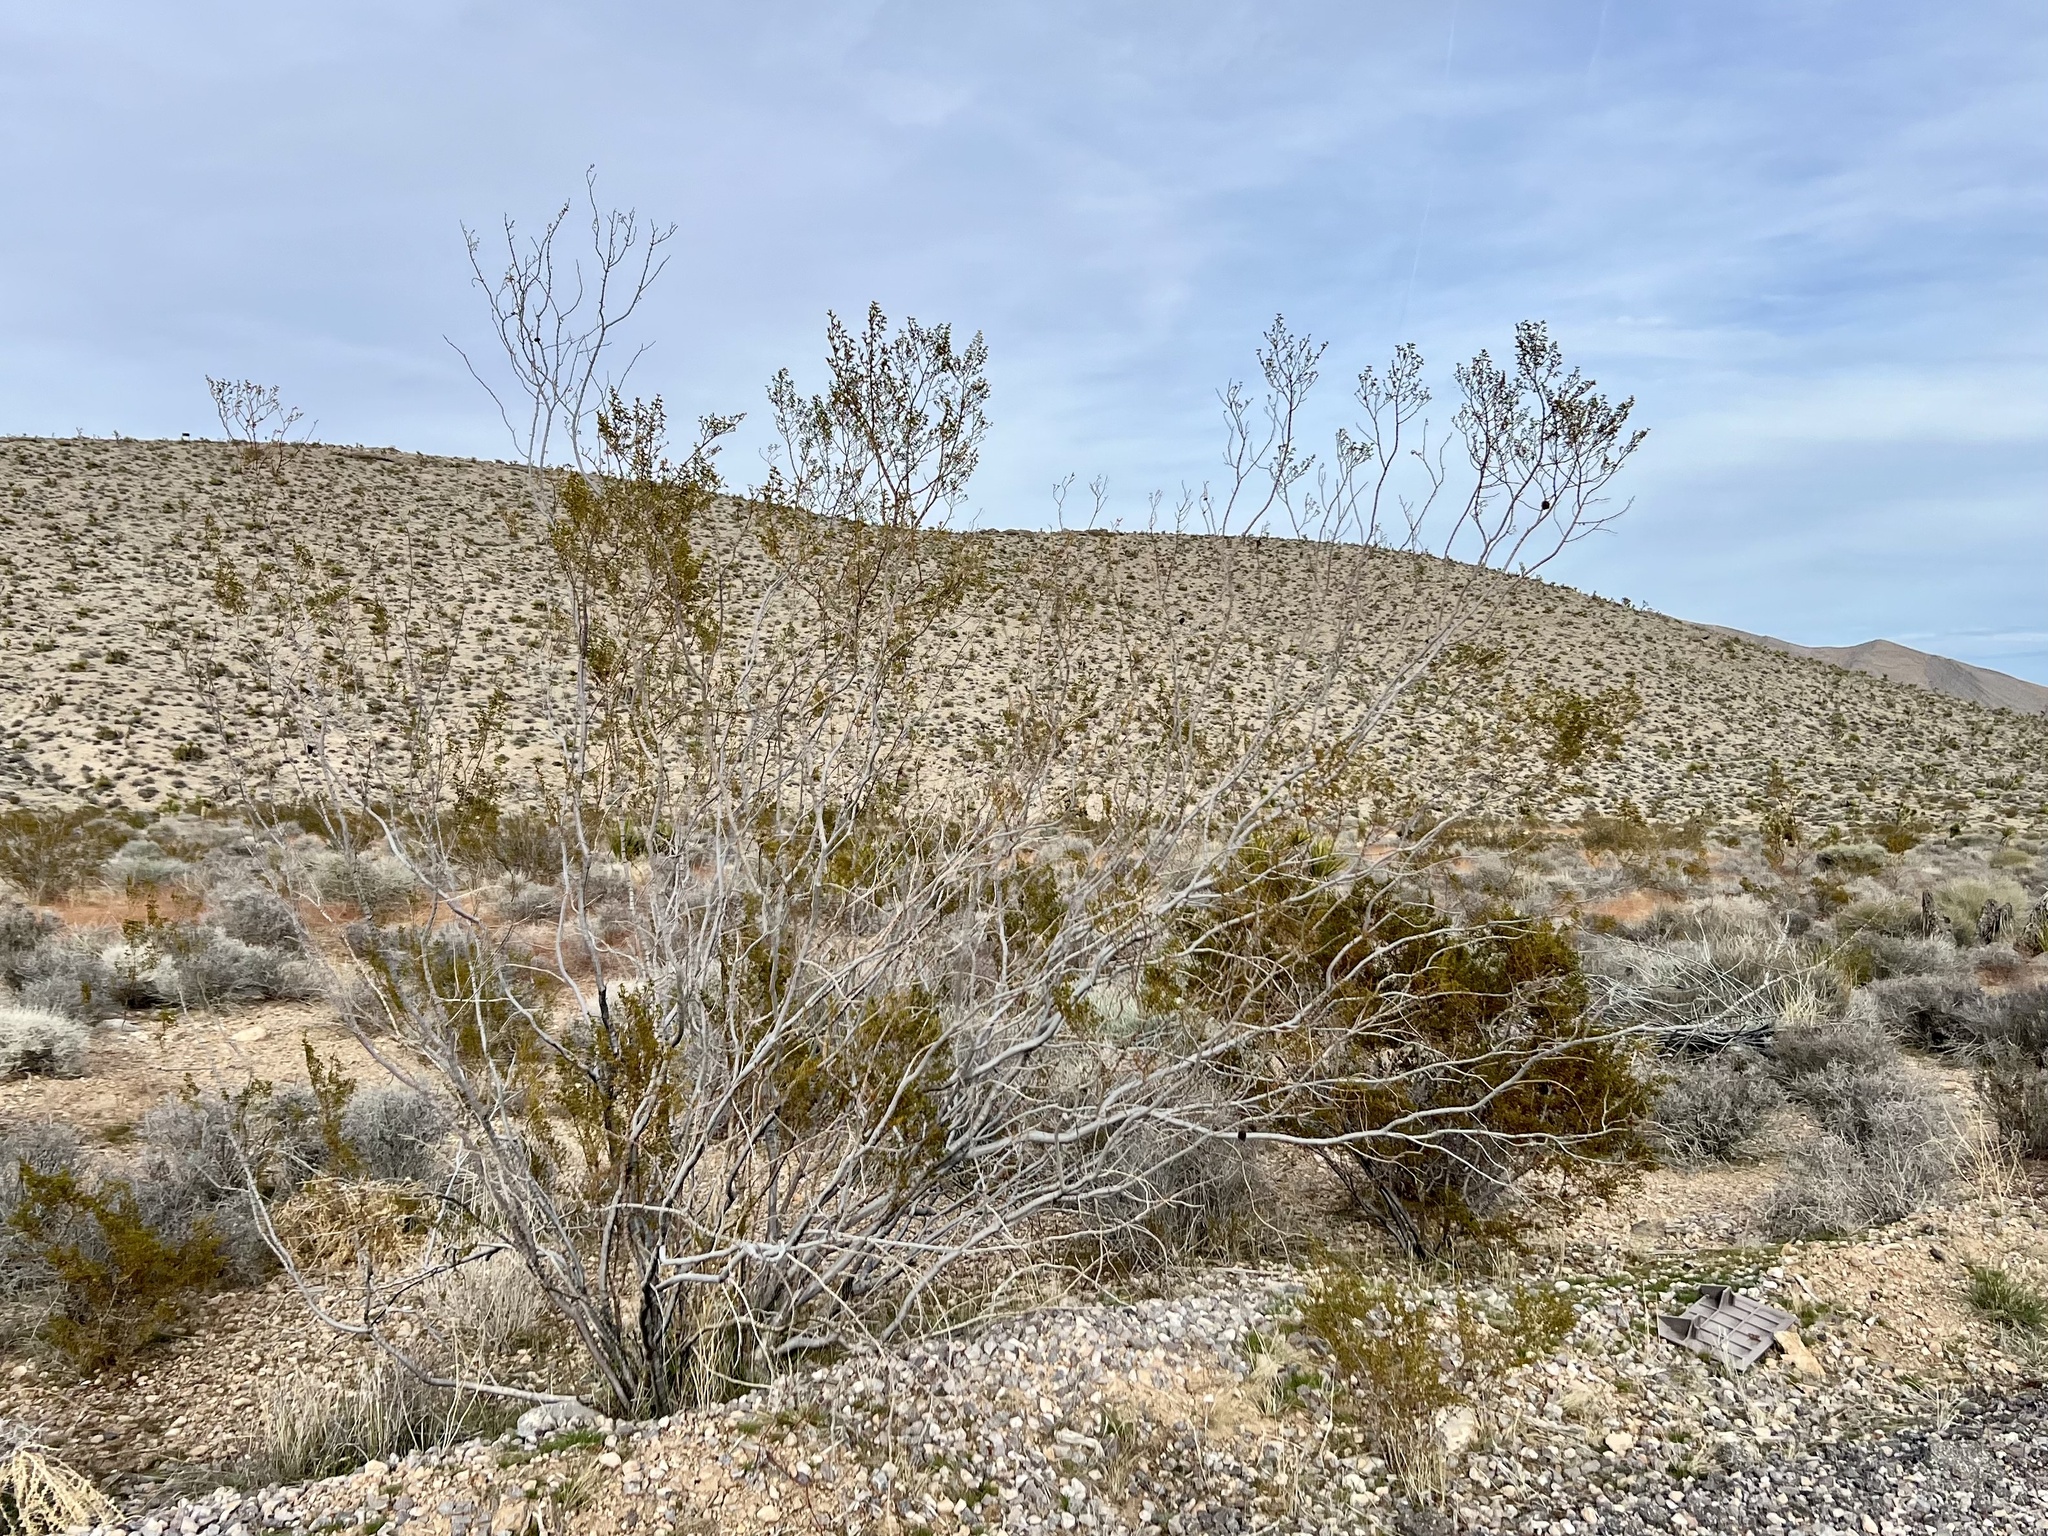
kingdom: Plantae
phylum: Tracheophyta
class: Magnoliopsida
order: Zygophyllales
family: Zygophyllaceae
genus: Larrea
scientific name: Larrea tridentata
